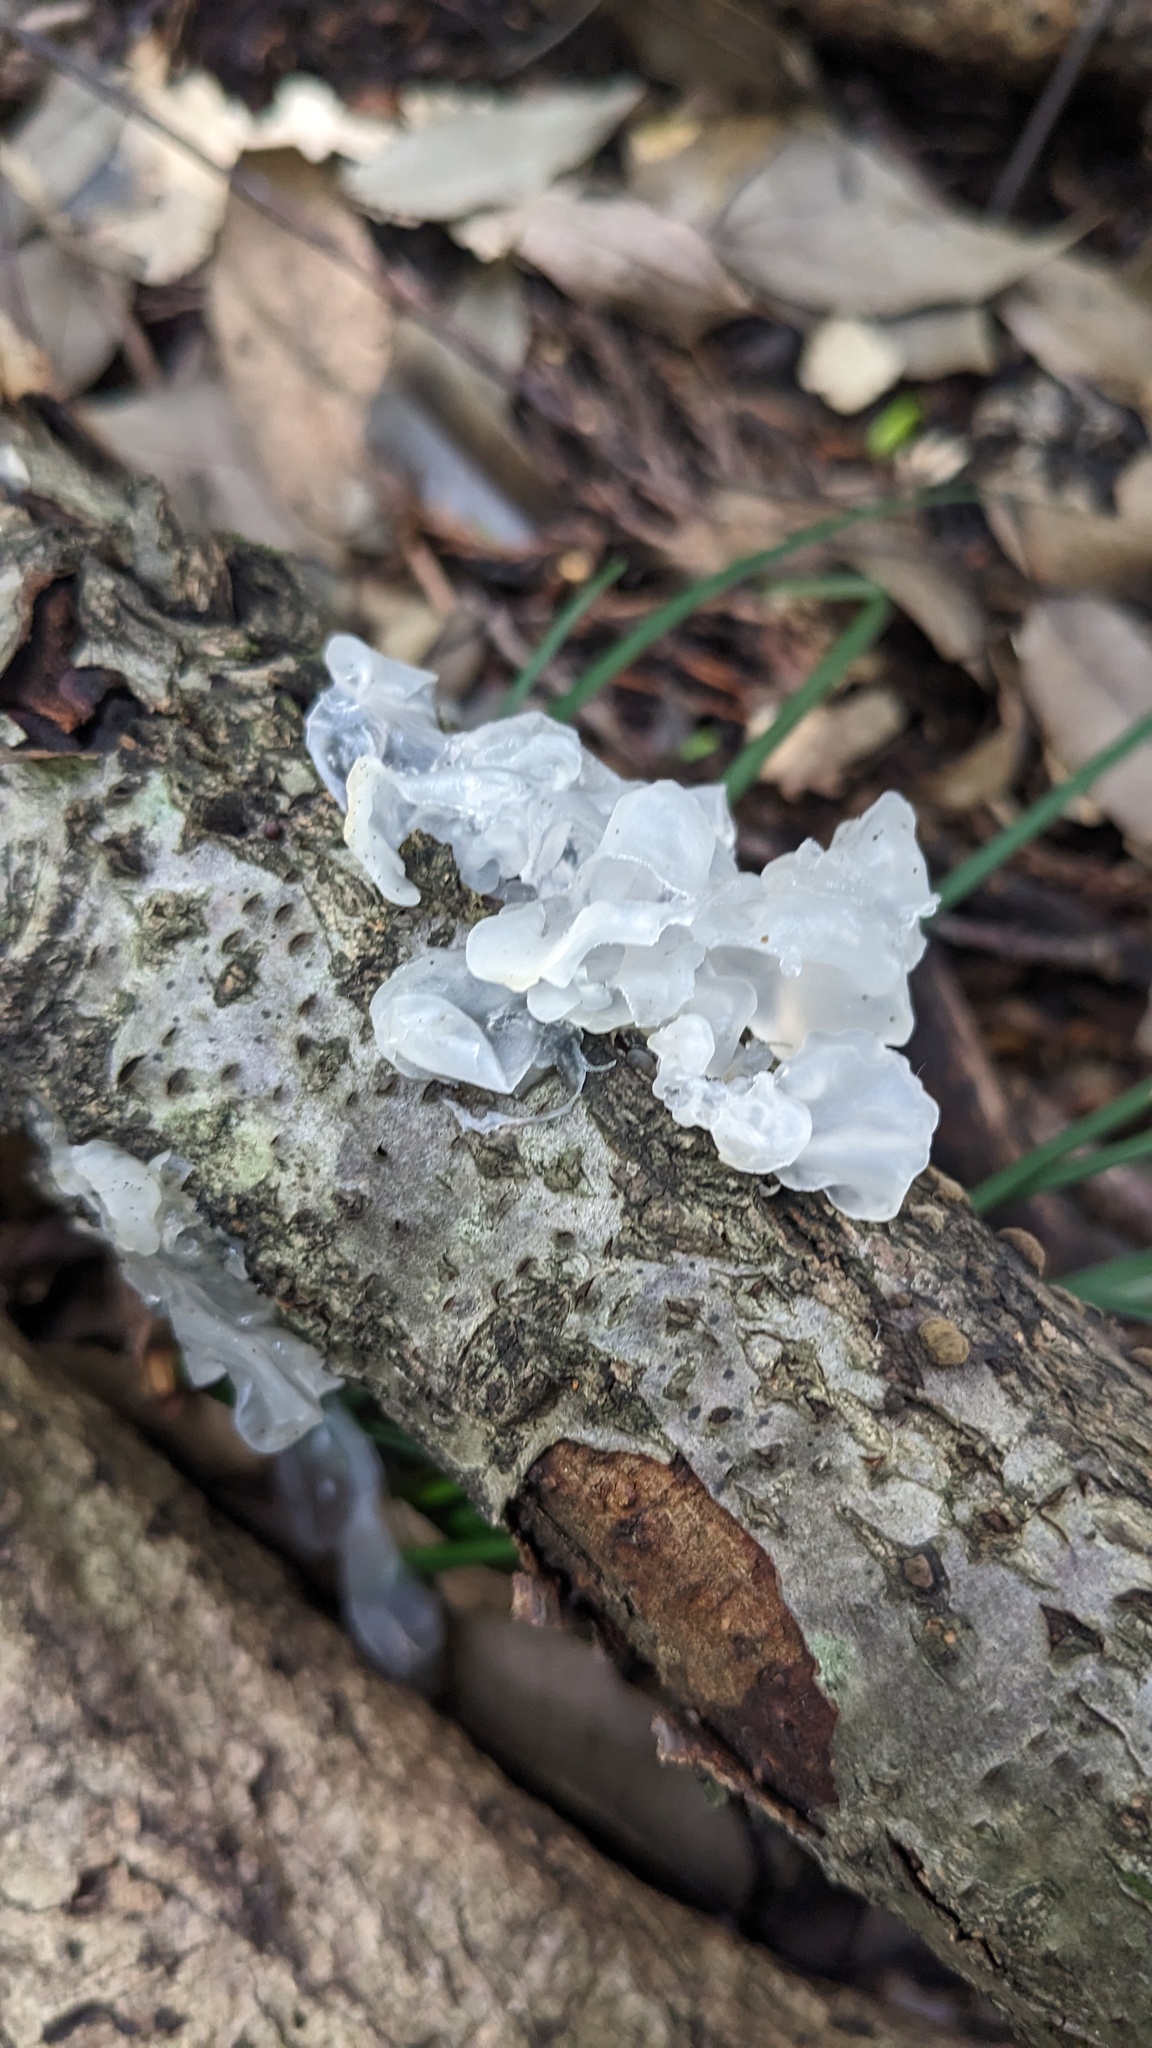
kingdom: Fungi
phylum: Basidiomycota
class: Tremellomycetes
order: Tremellales
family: Tremellaceae
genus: Tremella
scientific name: Tremella fuciformis
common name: Snow fungus
